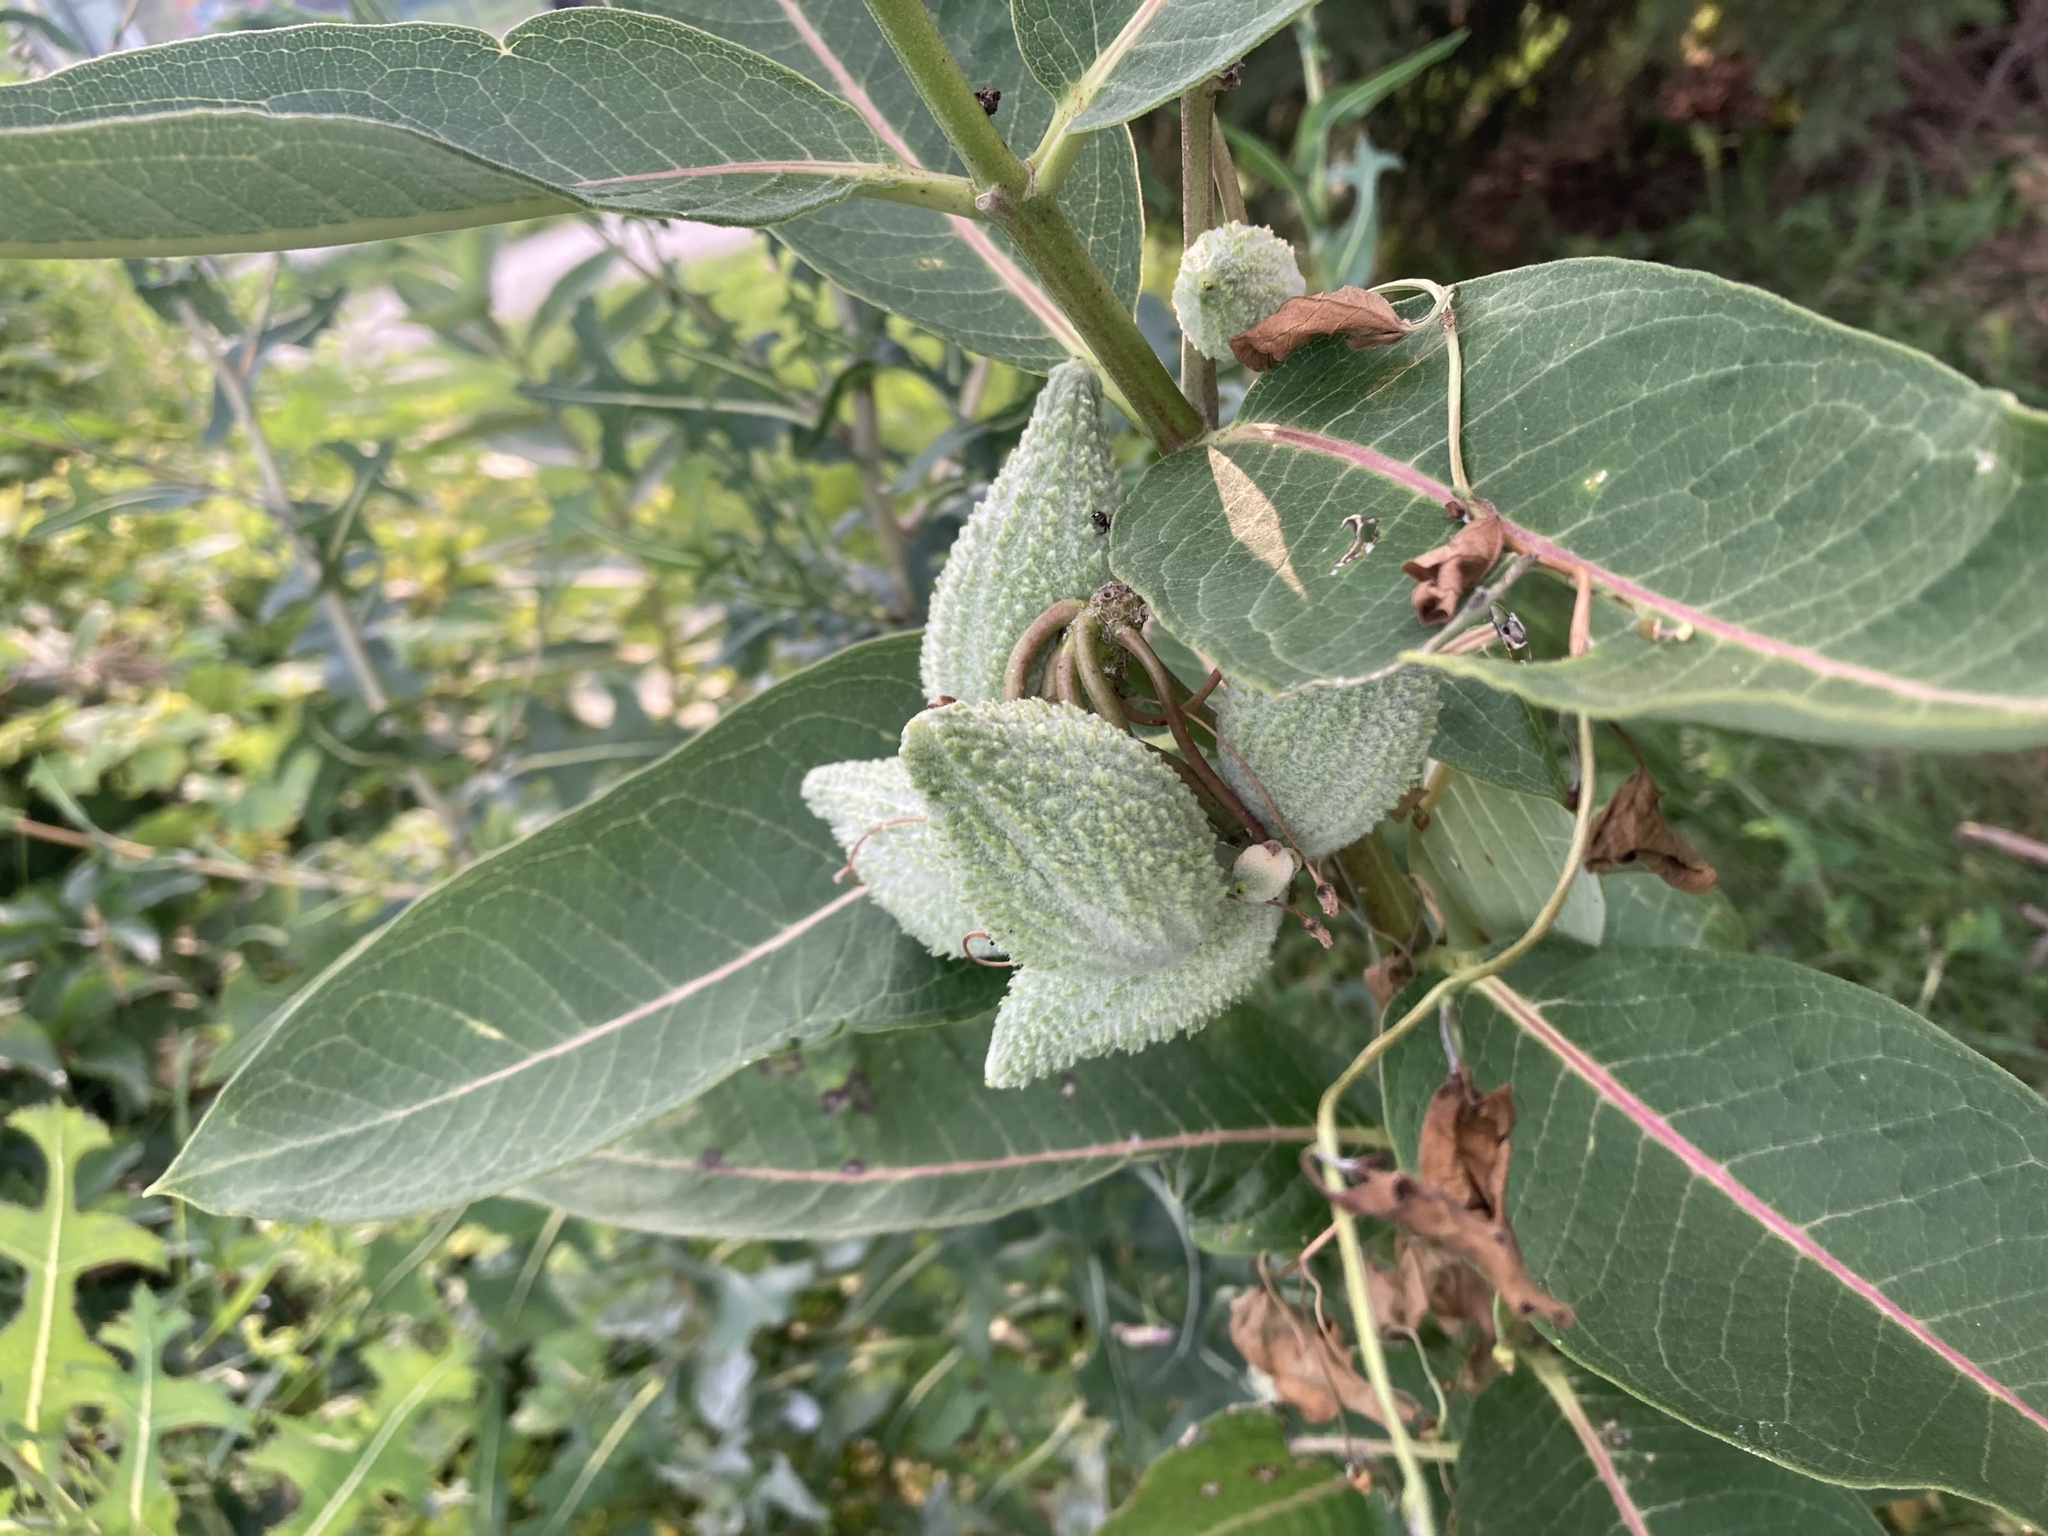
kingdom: Plantae
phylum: Tracheophyta
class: Magnoliopsida
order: Gentianales
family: Apocynaceae
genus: Asclepias
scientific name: Asclepias syriaca
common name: Common milkweed
